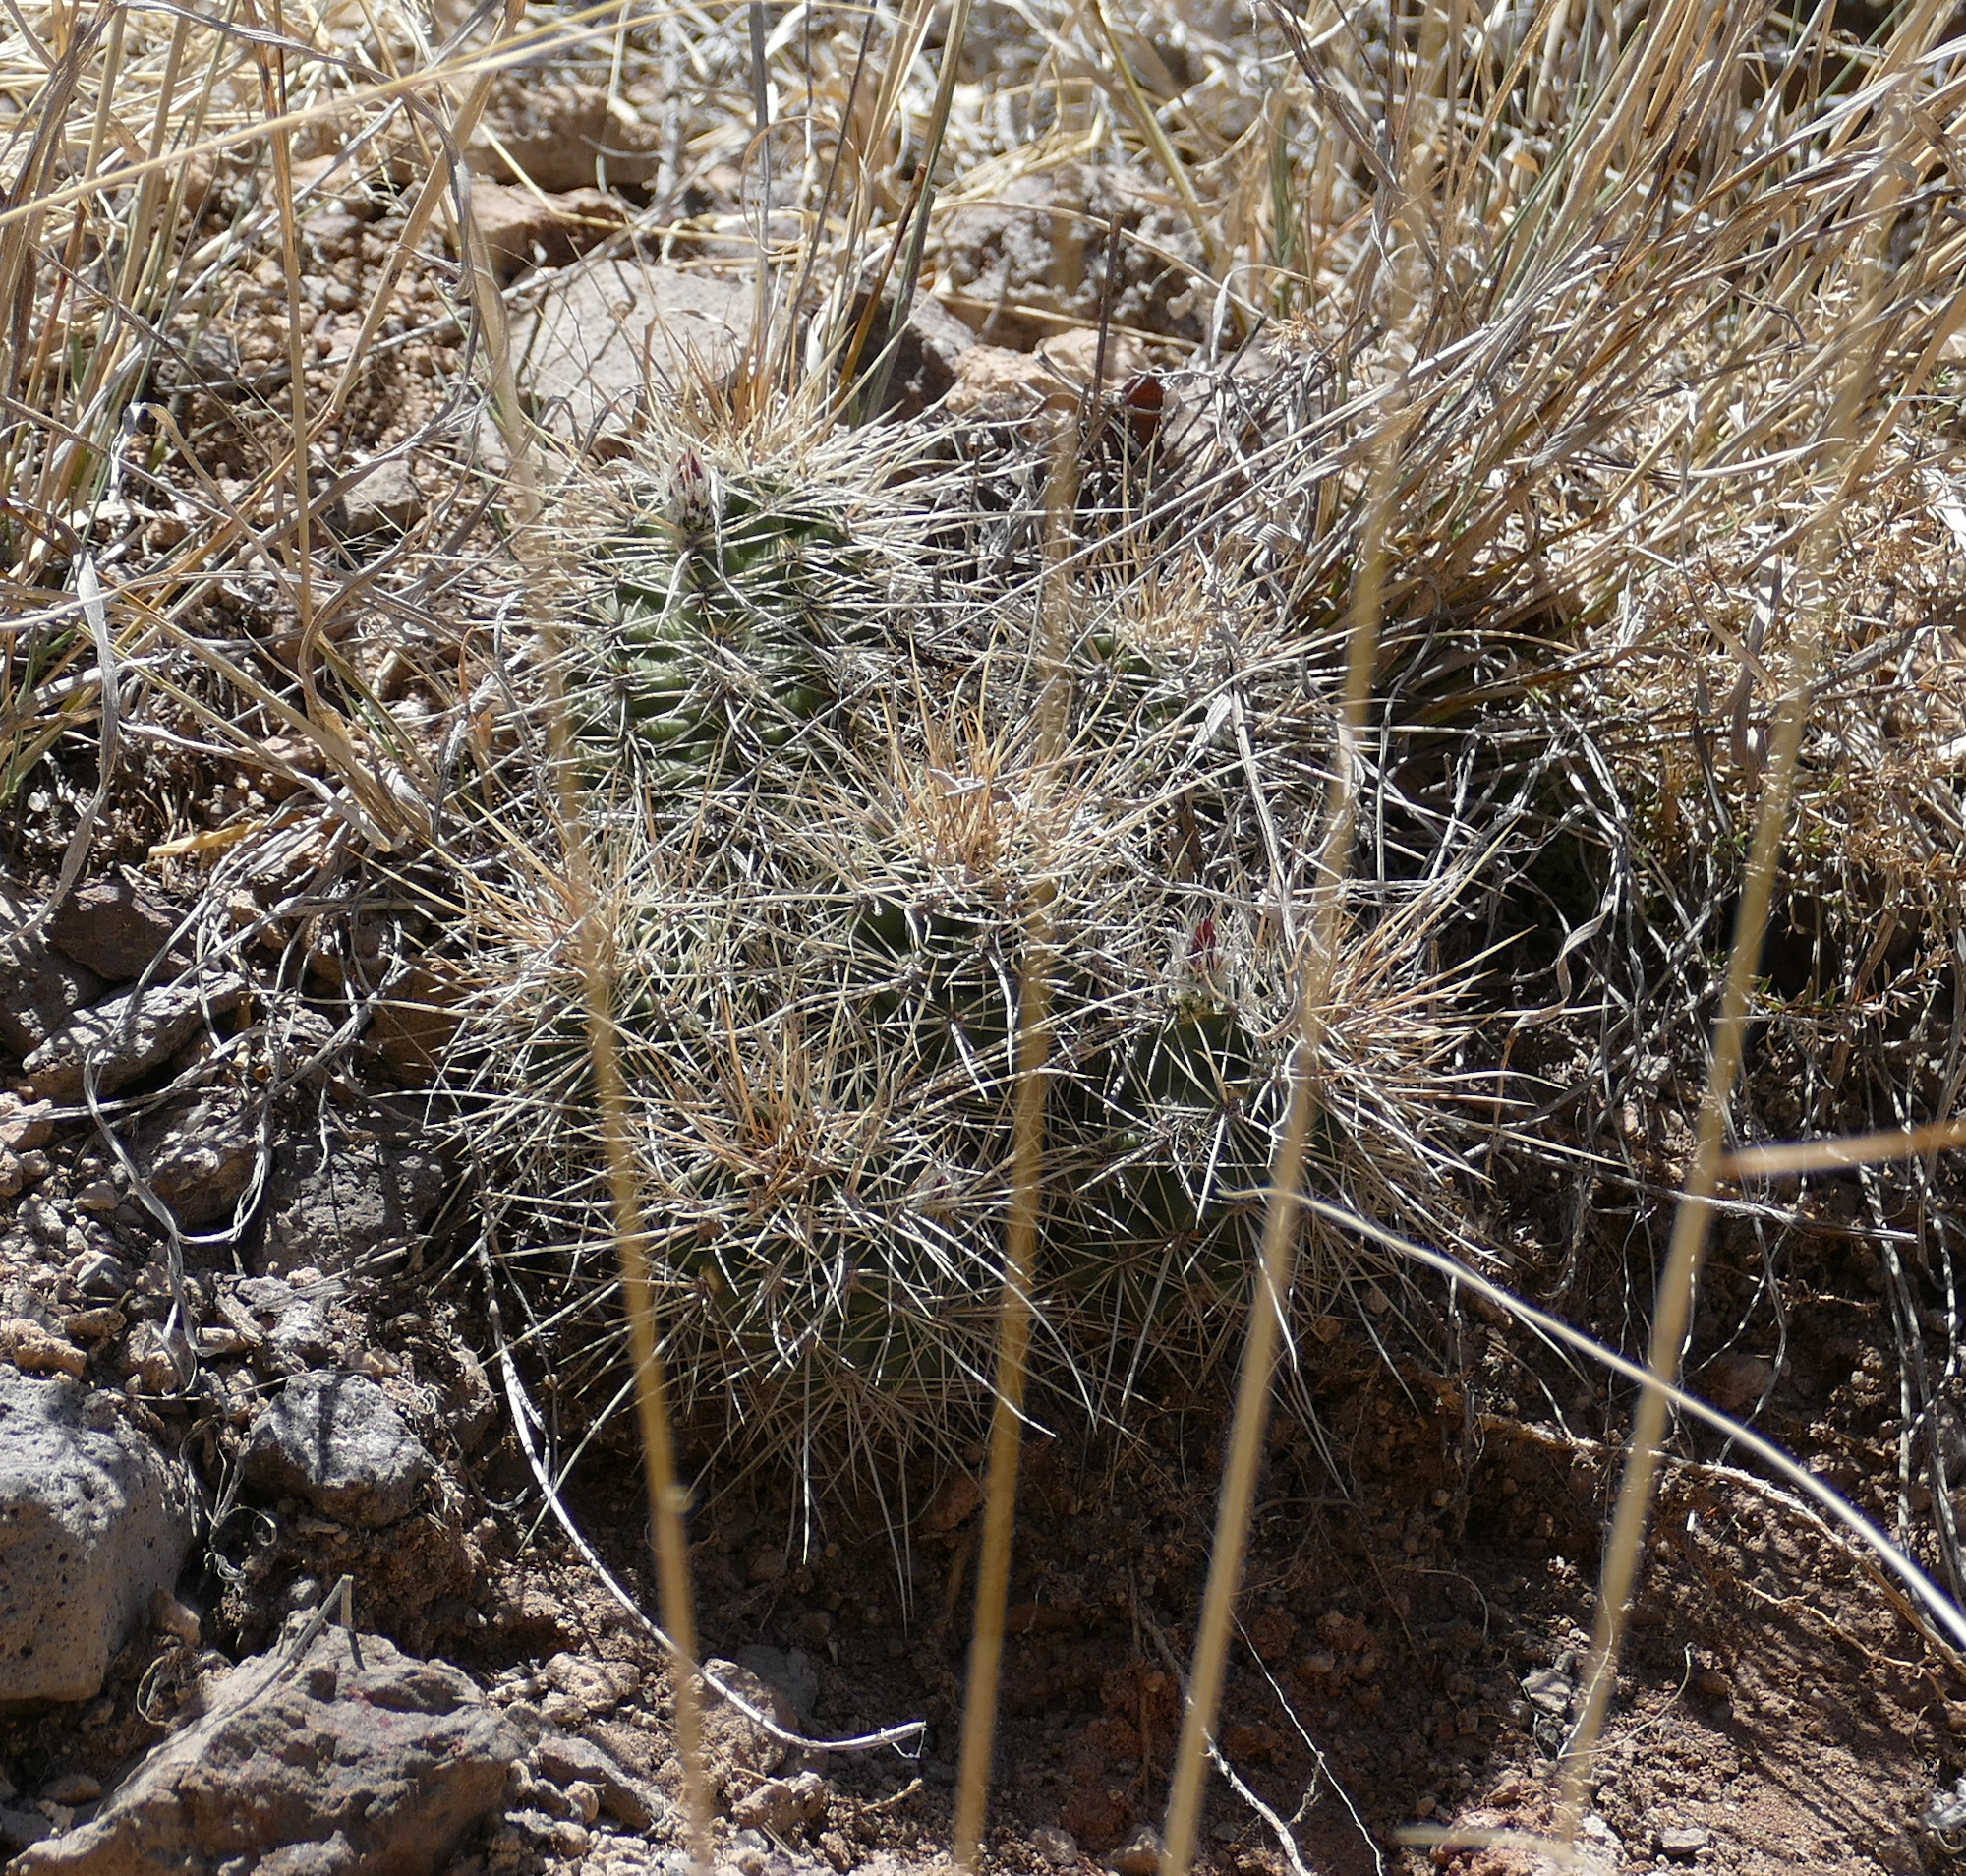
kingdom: Plantae
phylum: Tracheophyta
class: Magnoliopsida
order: Caryophyllales
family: Cactaceae
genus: Echinocereus
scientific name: Echinocereus coccineus
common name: Scarlet hedgehog cactus
